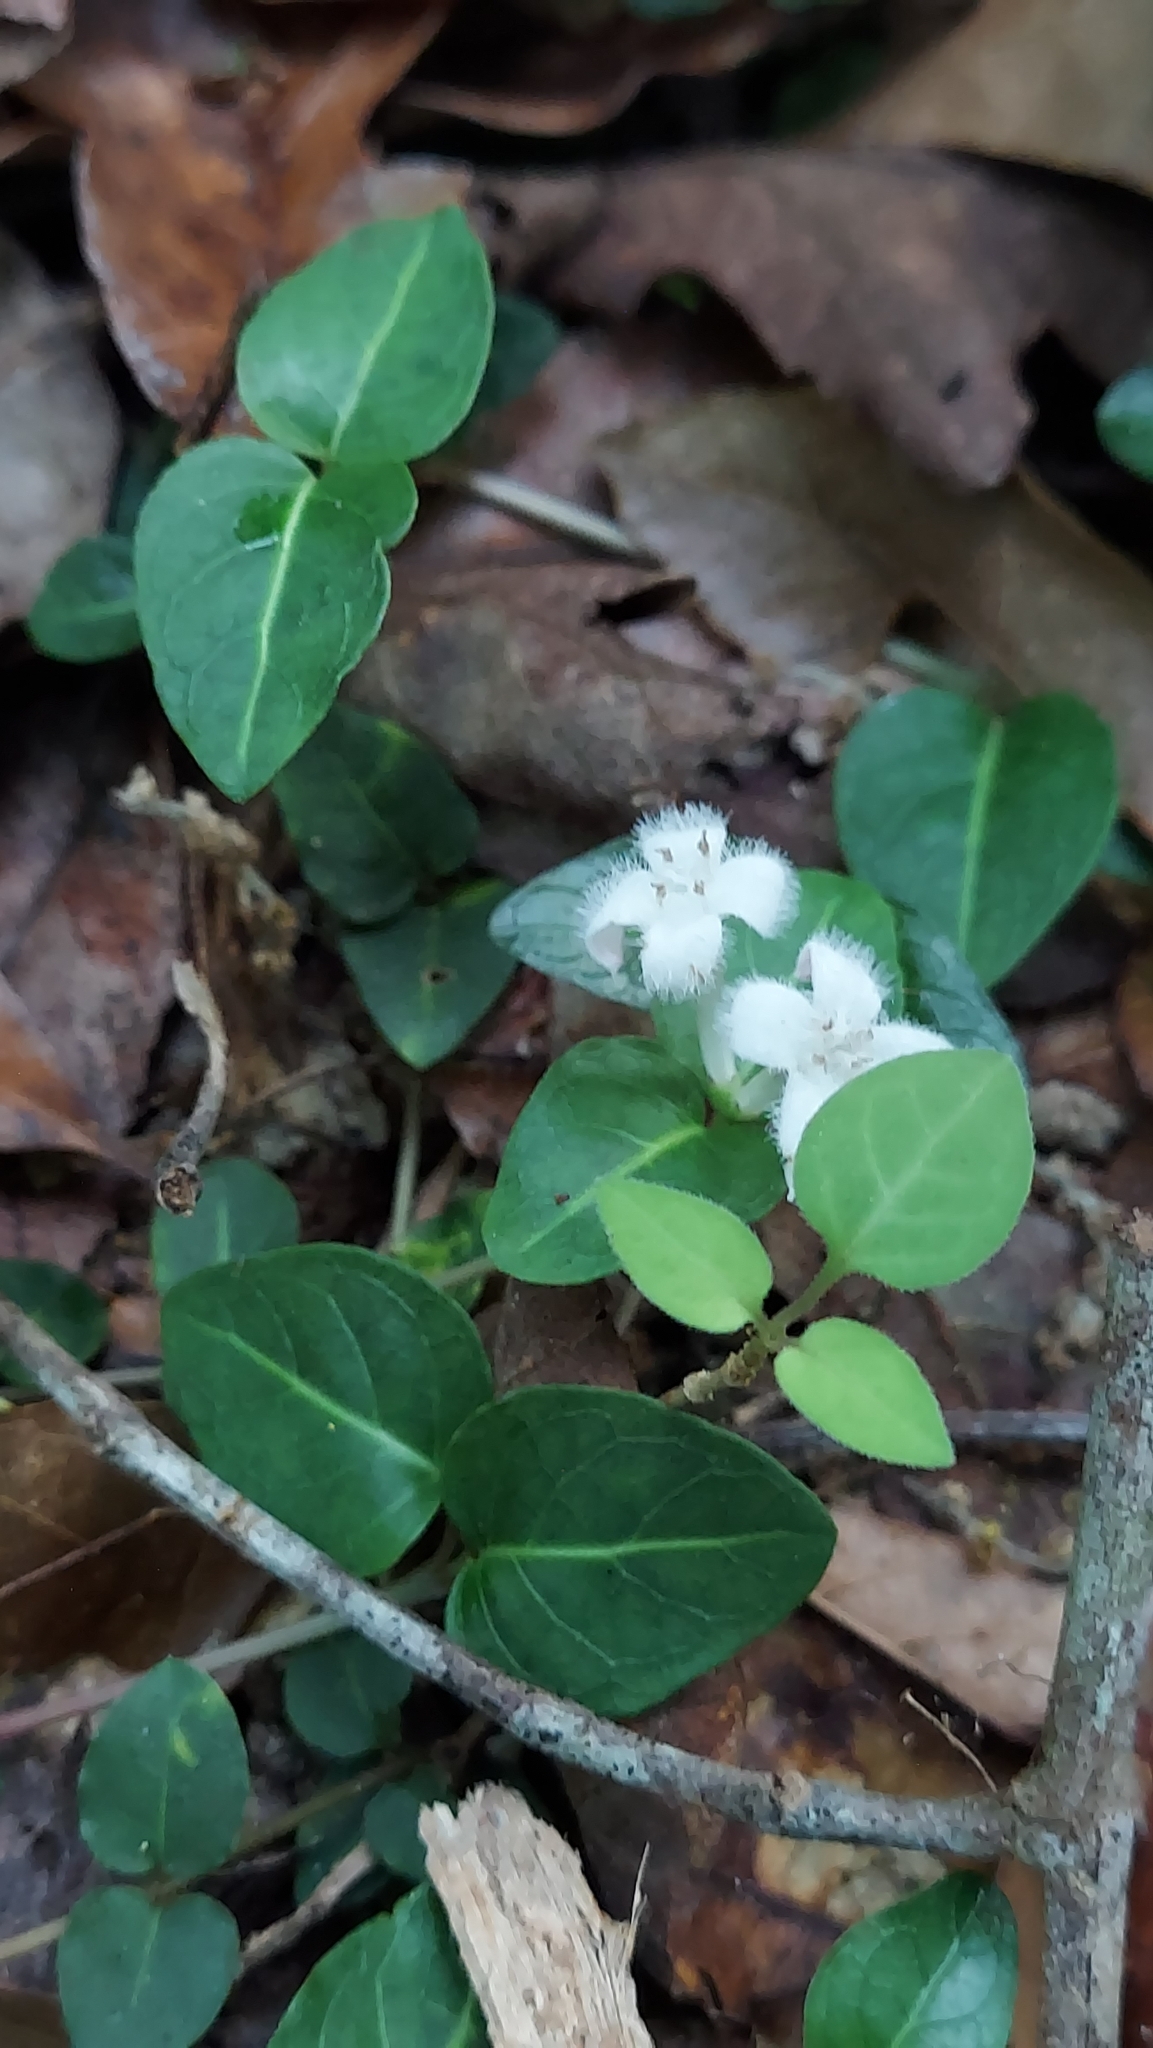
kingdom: Plantae
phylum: Tracheophyta
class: Magnoliopsida
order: Gentianales
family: Rubiaceae
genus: Mitchella
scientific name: Mitchella repens
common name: Partridge-berry
